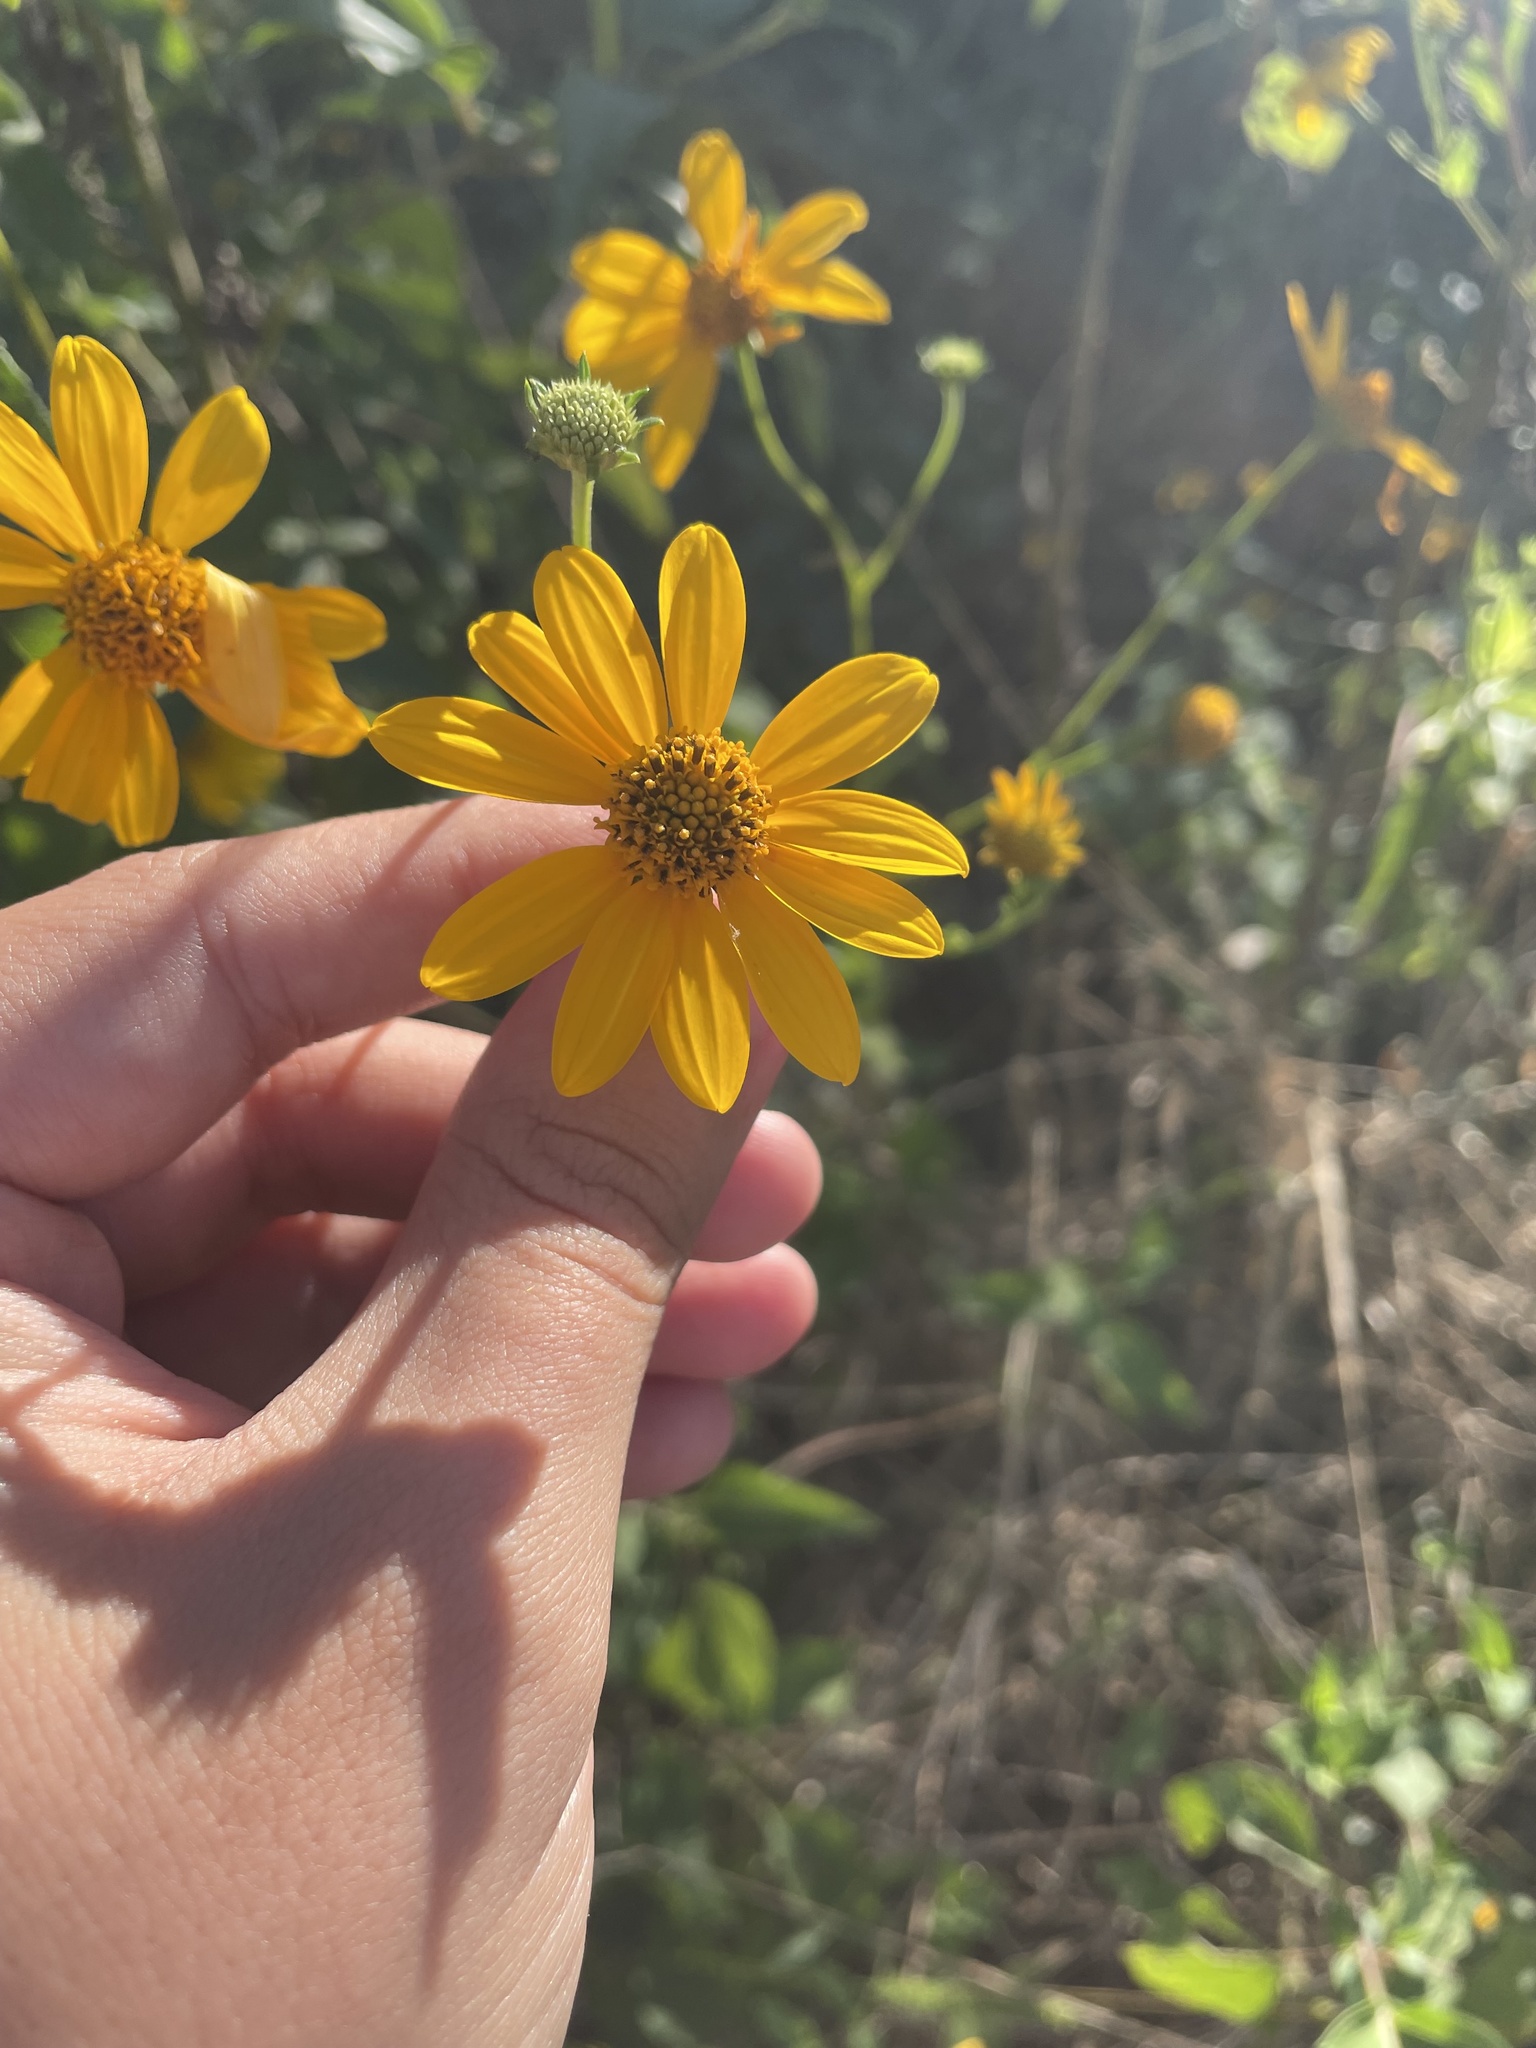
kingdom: Plantae
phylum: Tracheophyta
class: Magnoliopsida
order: Asterales
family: Asteraceae
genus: Viguiera
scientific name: Viguiera dentata
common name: Toothleaf
